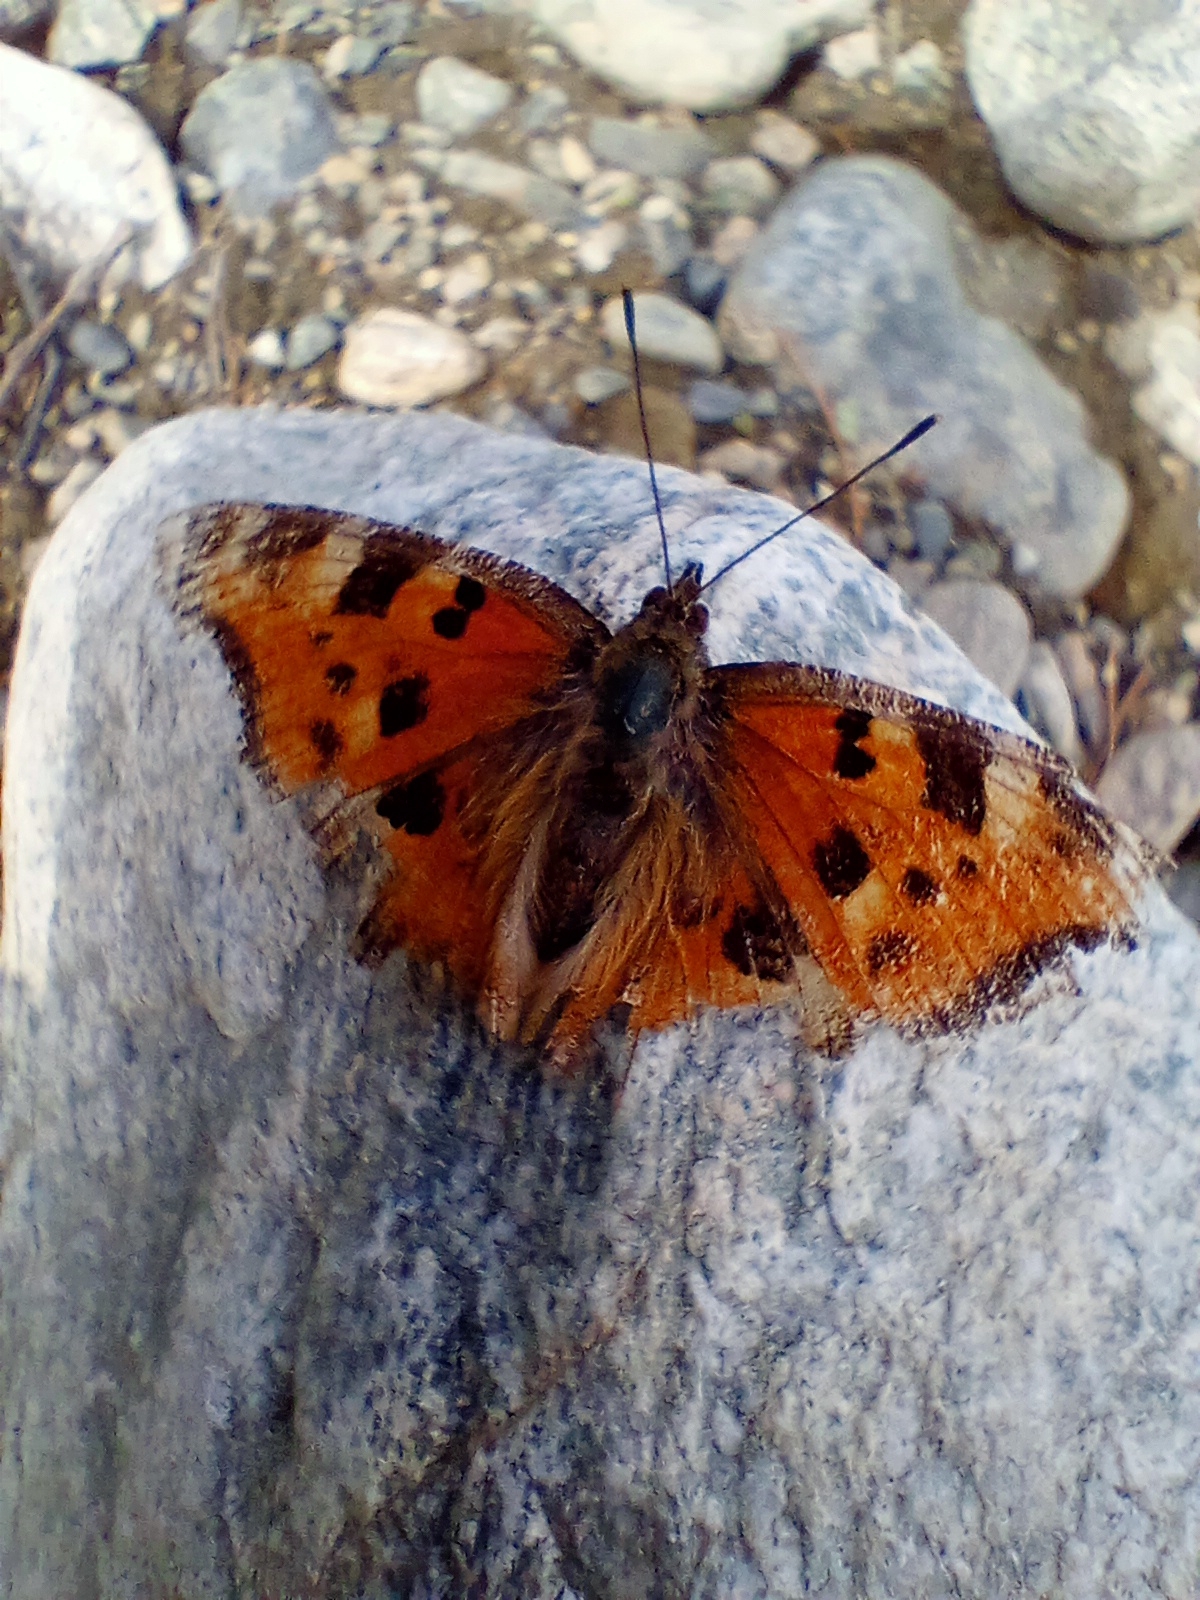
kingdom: Animalia
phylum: Arthropoda
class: Insecta
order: Lepidoptera
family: Nymphalidae
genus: Nymphalis
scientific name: Nymphalis xanthomelas
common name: Scarce tortoiseshell
